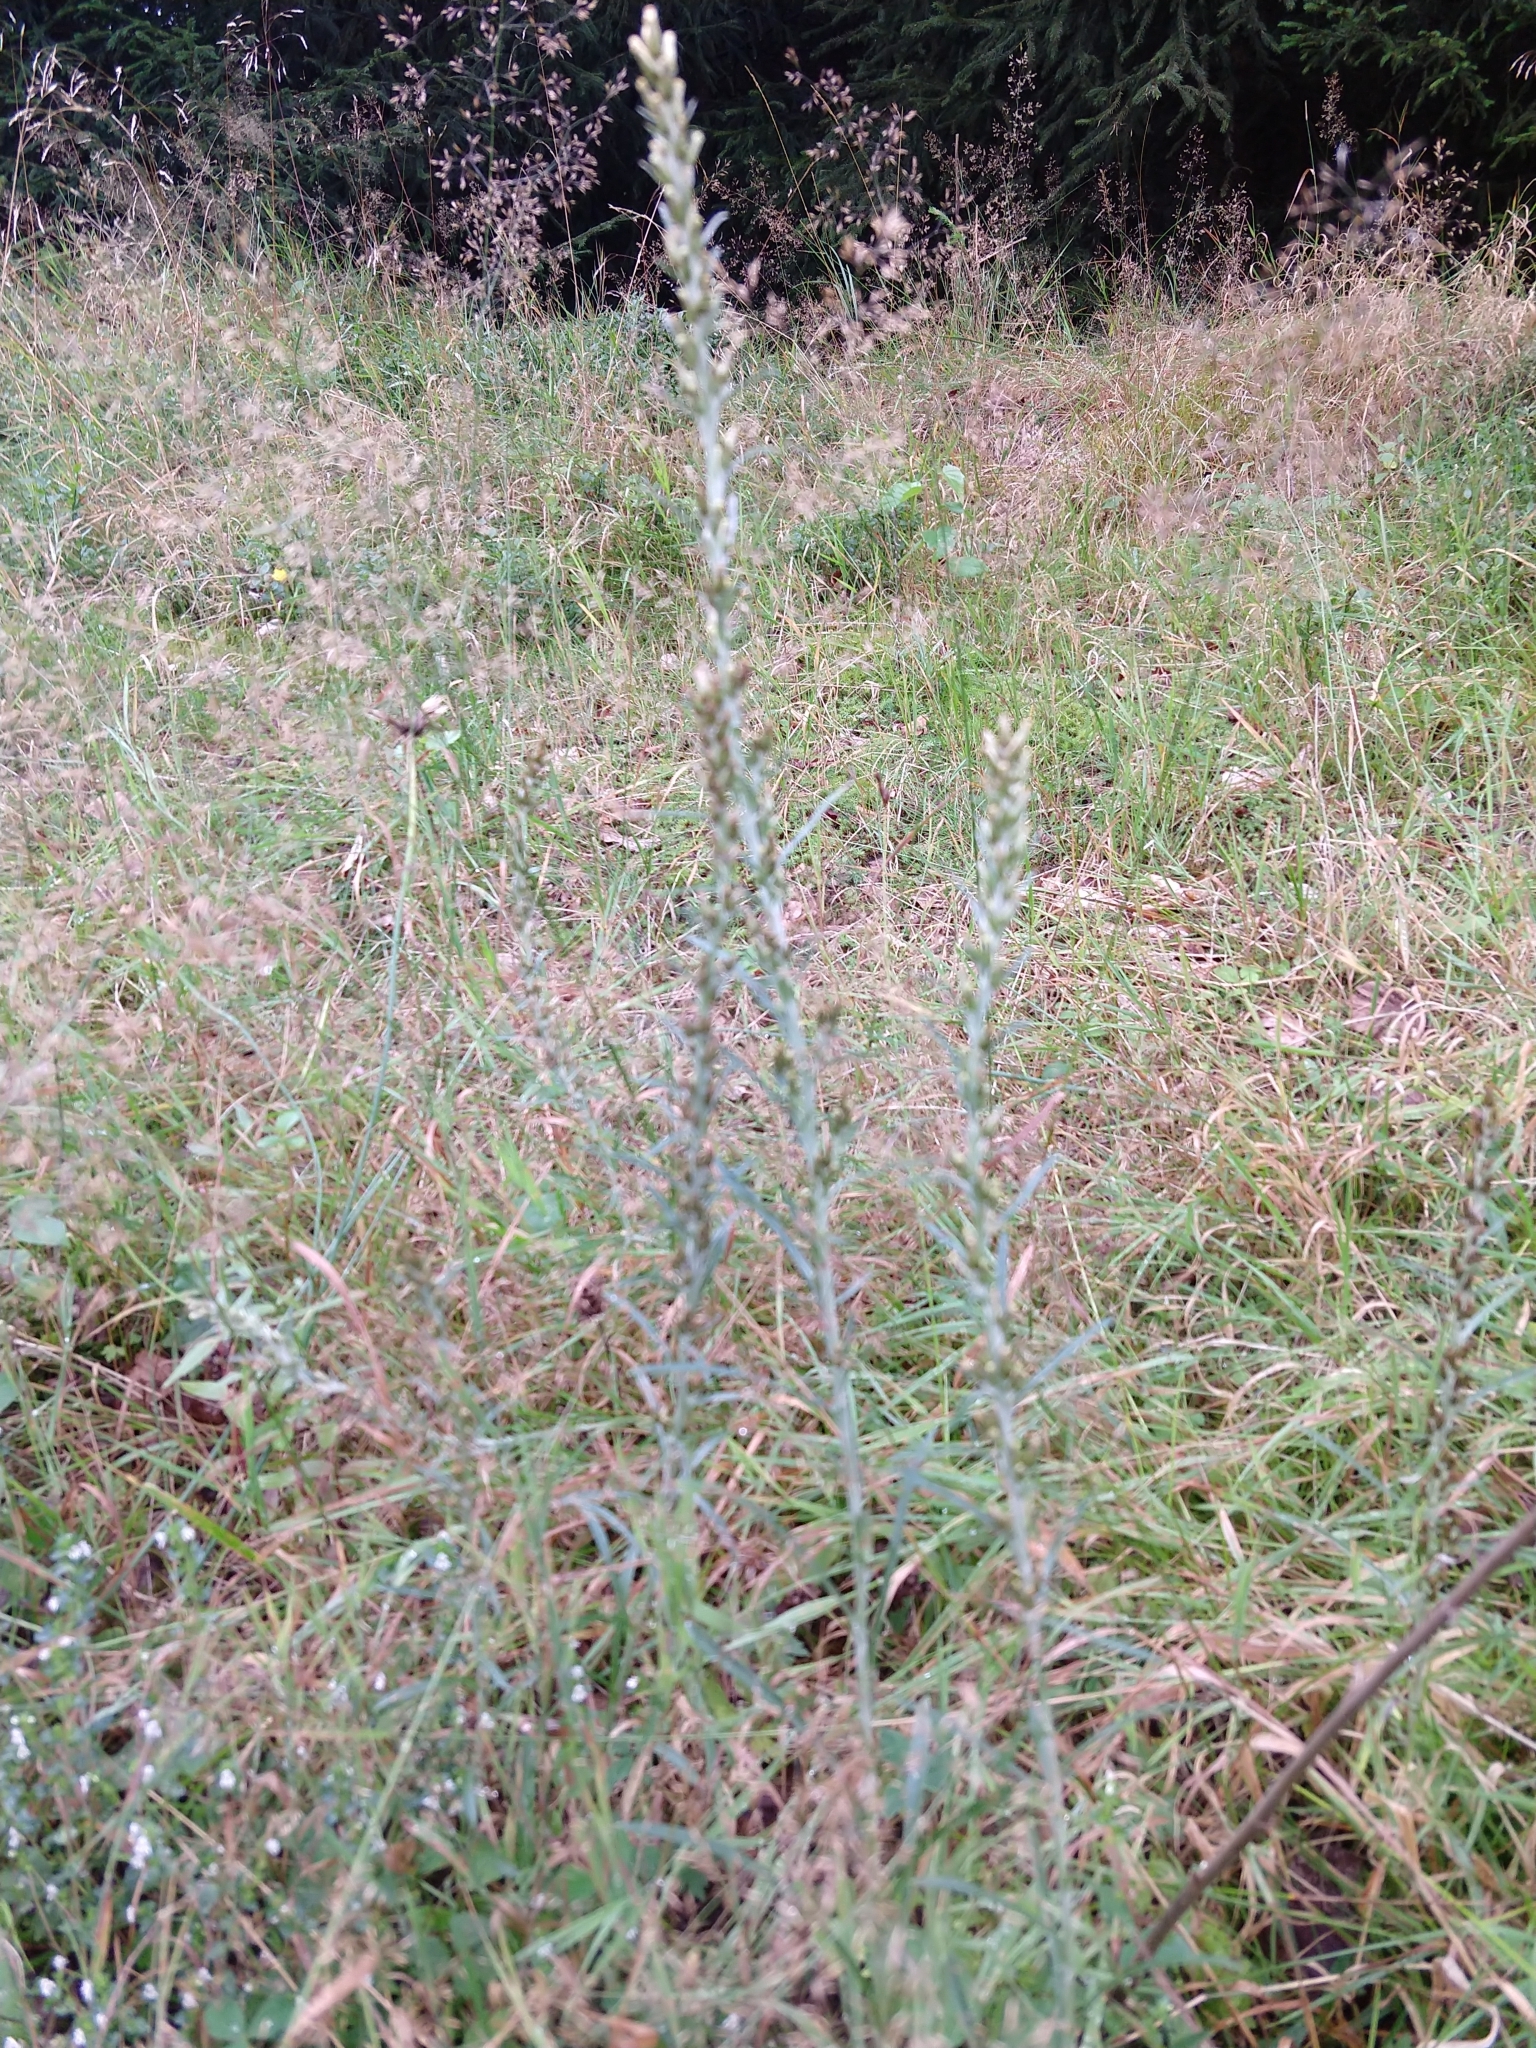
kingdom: Plantae
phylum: Tracheophyta
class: Magnoliopsida
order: Asterales
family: Asteraceae
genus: Omalotheca
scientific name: Omalotheca sylvatica
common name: Heath cudweed
